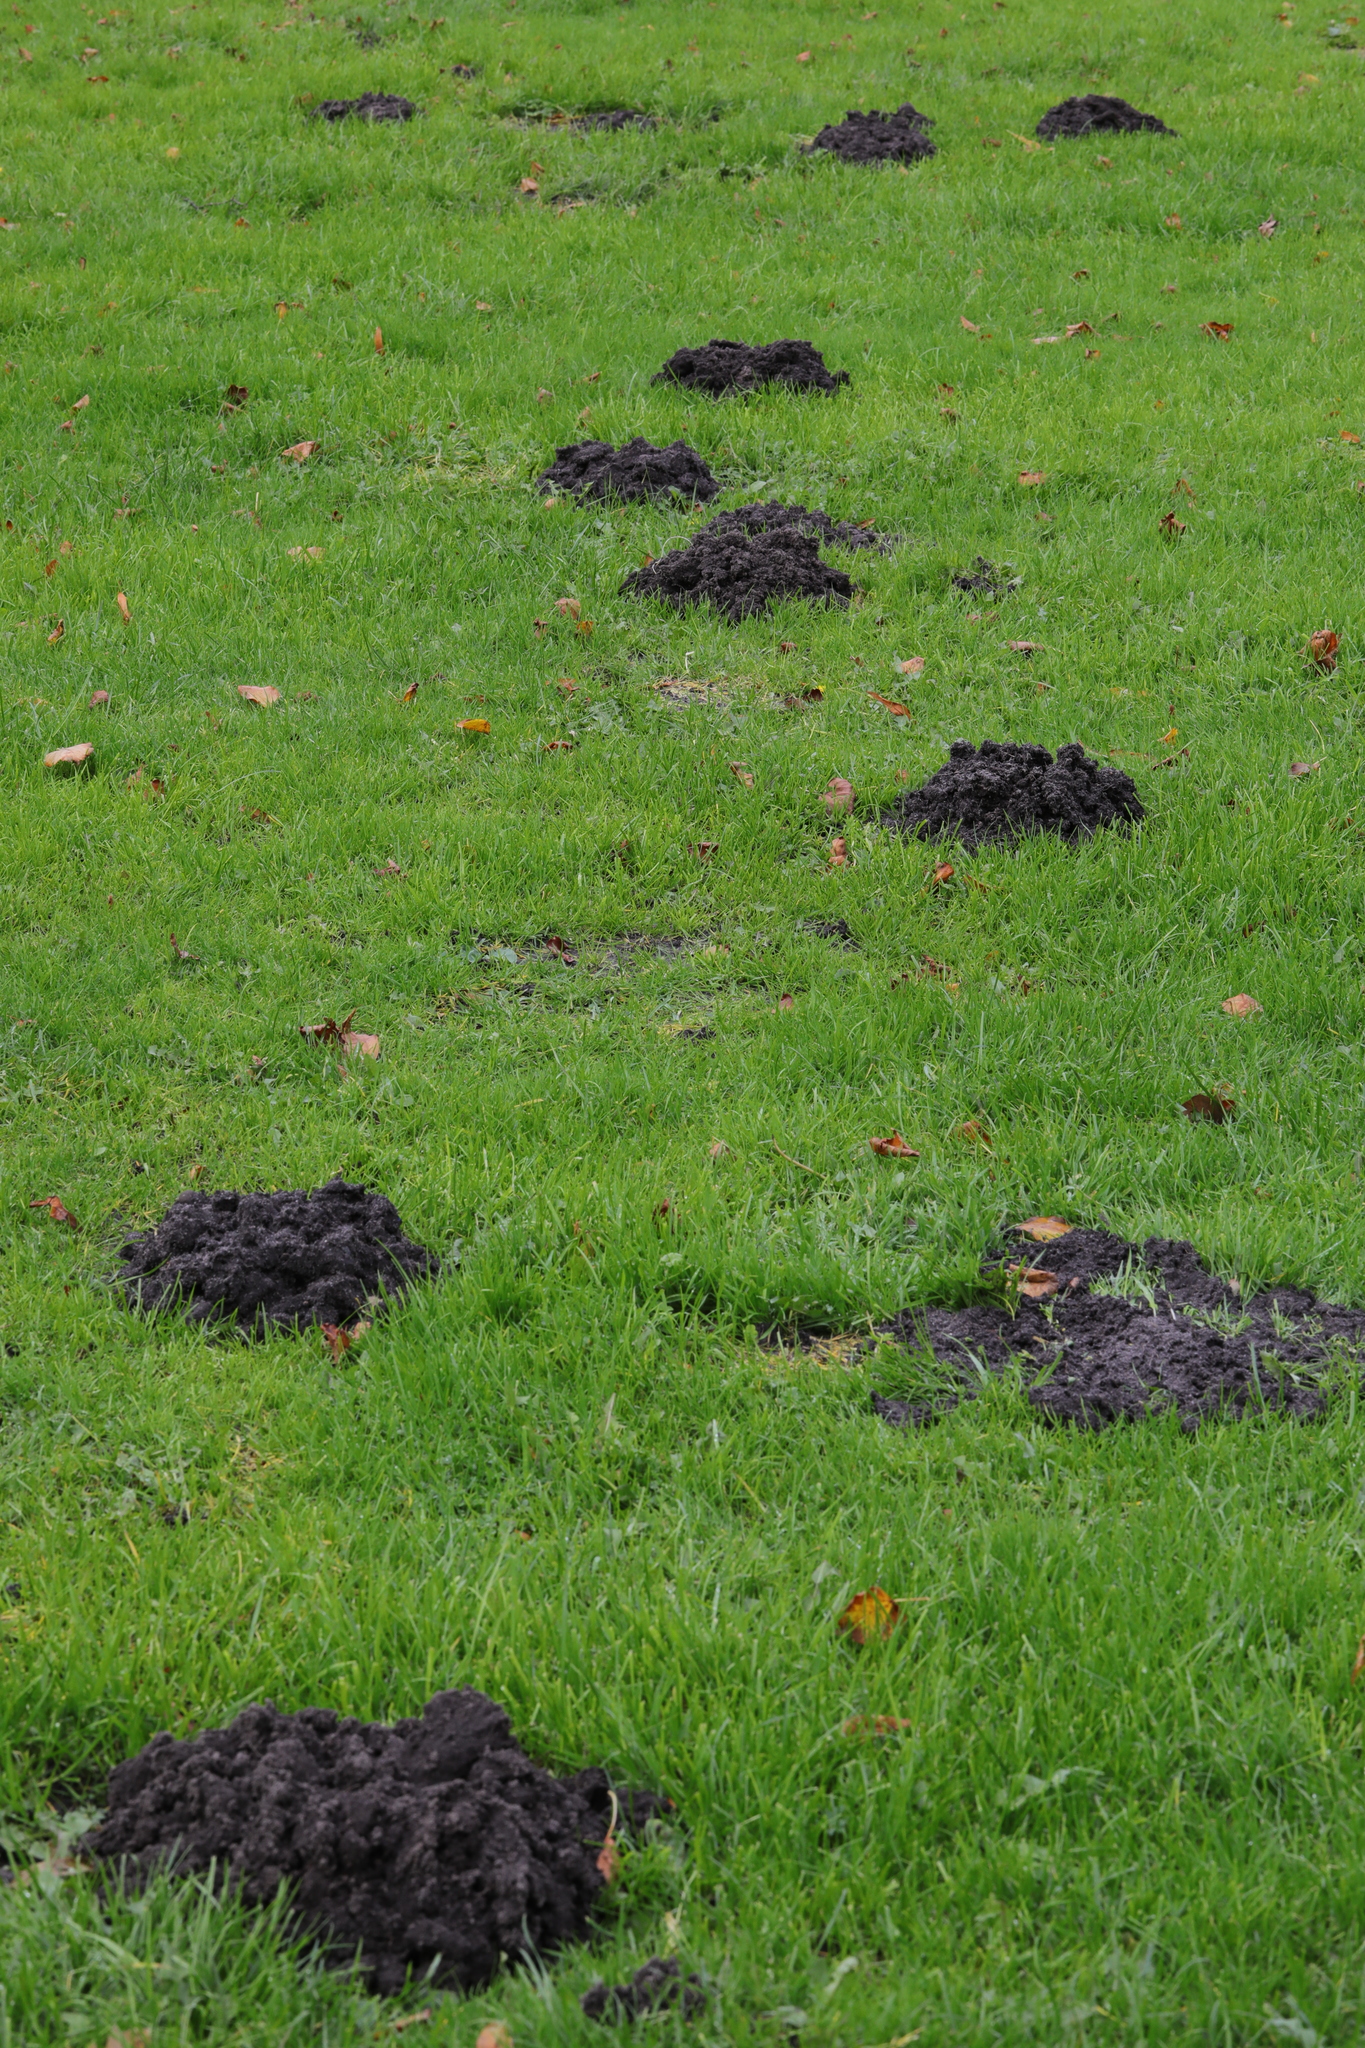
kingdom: Animalia
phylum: Chordata
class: Mammalia
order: Soricomorpha
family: Talpidae
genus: Talpa
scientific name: Talpa europaea
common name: European mole
